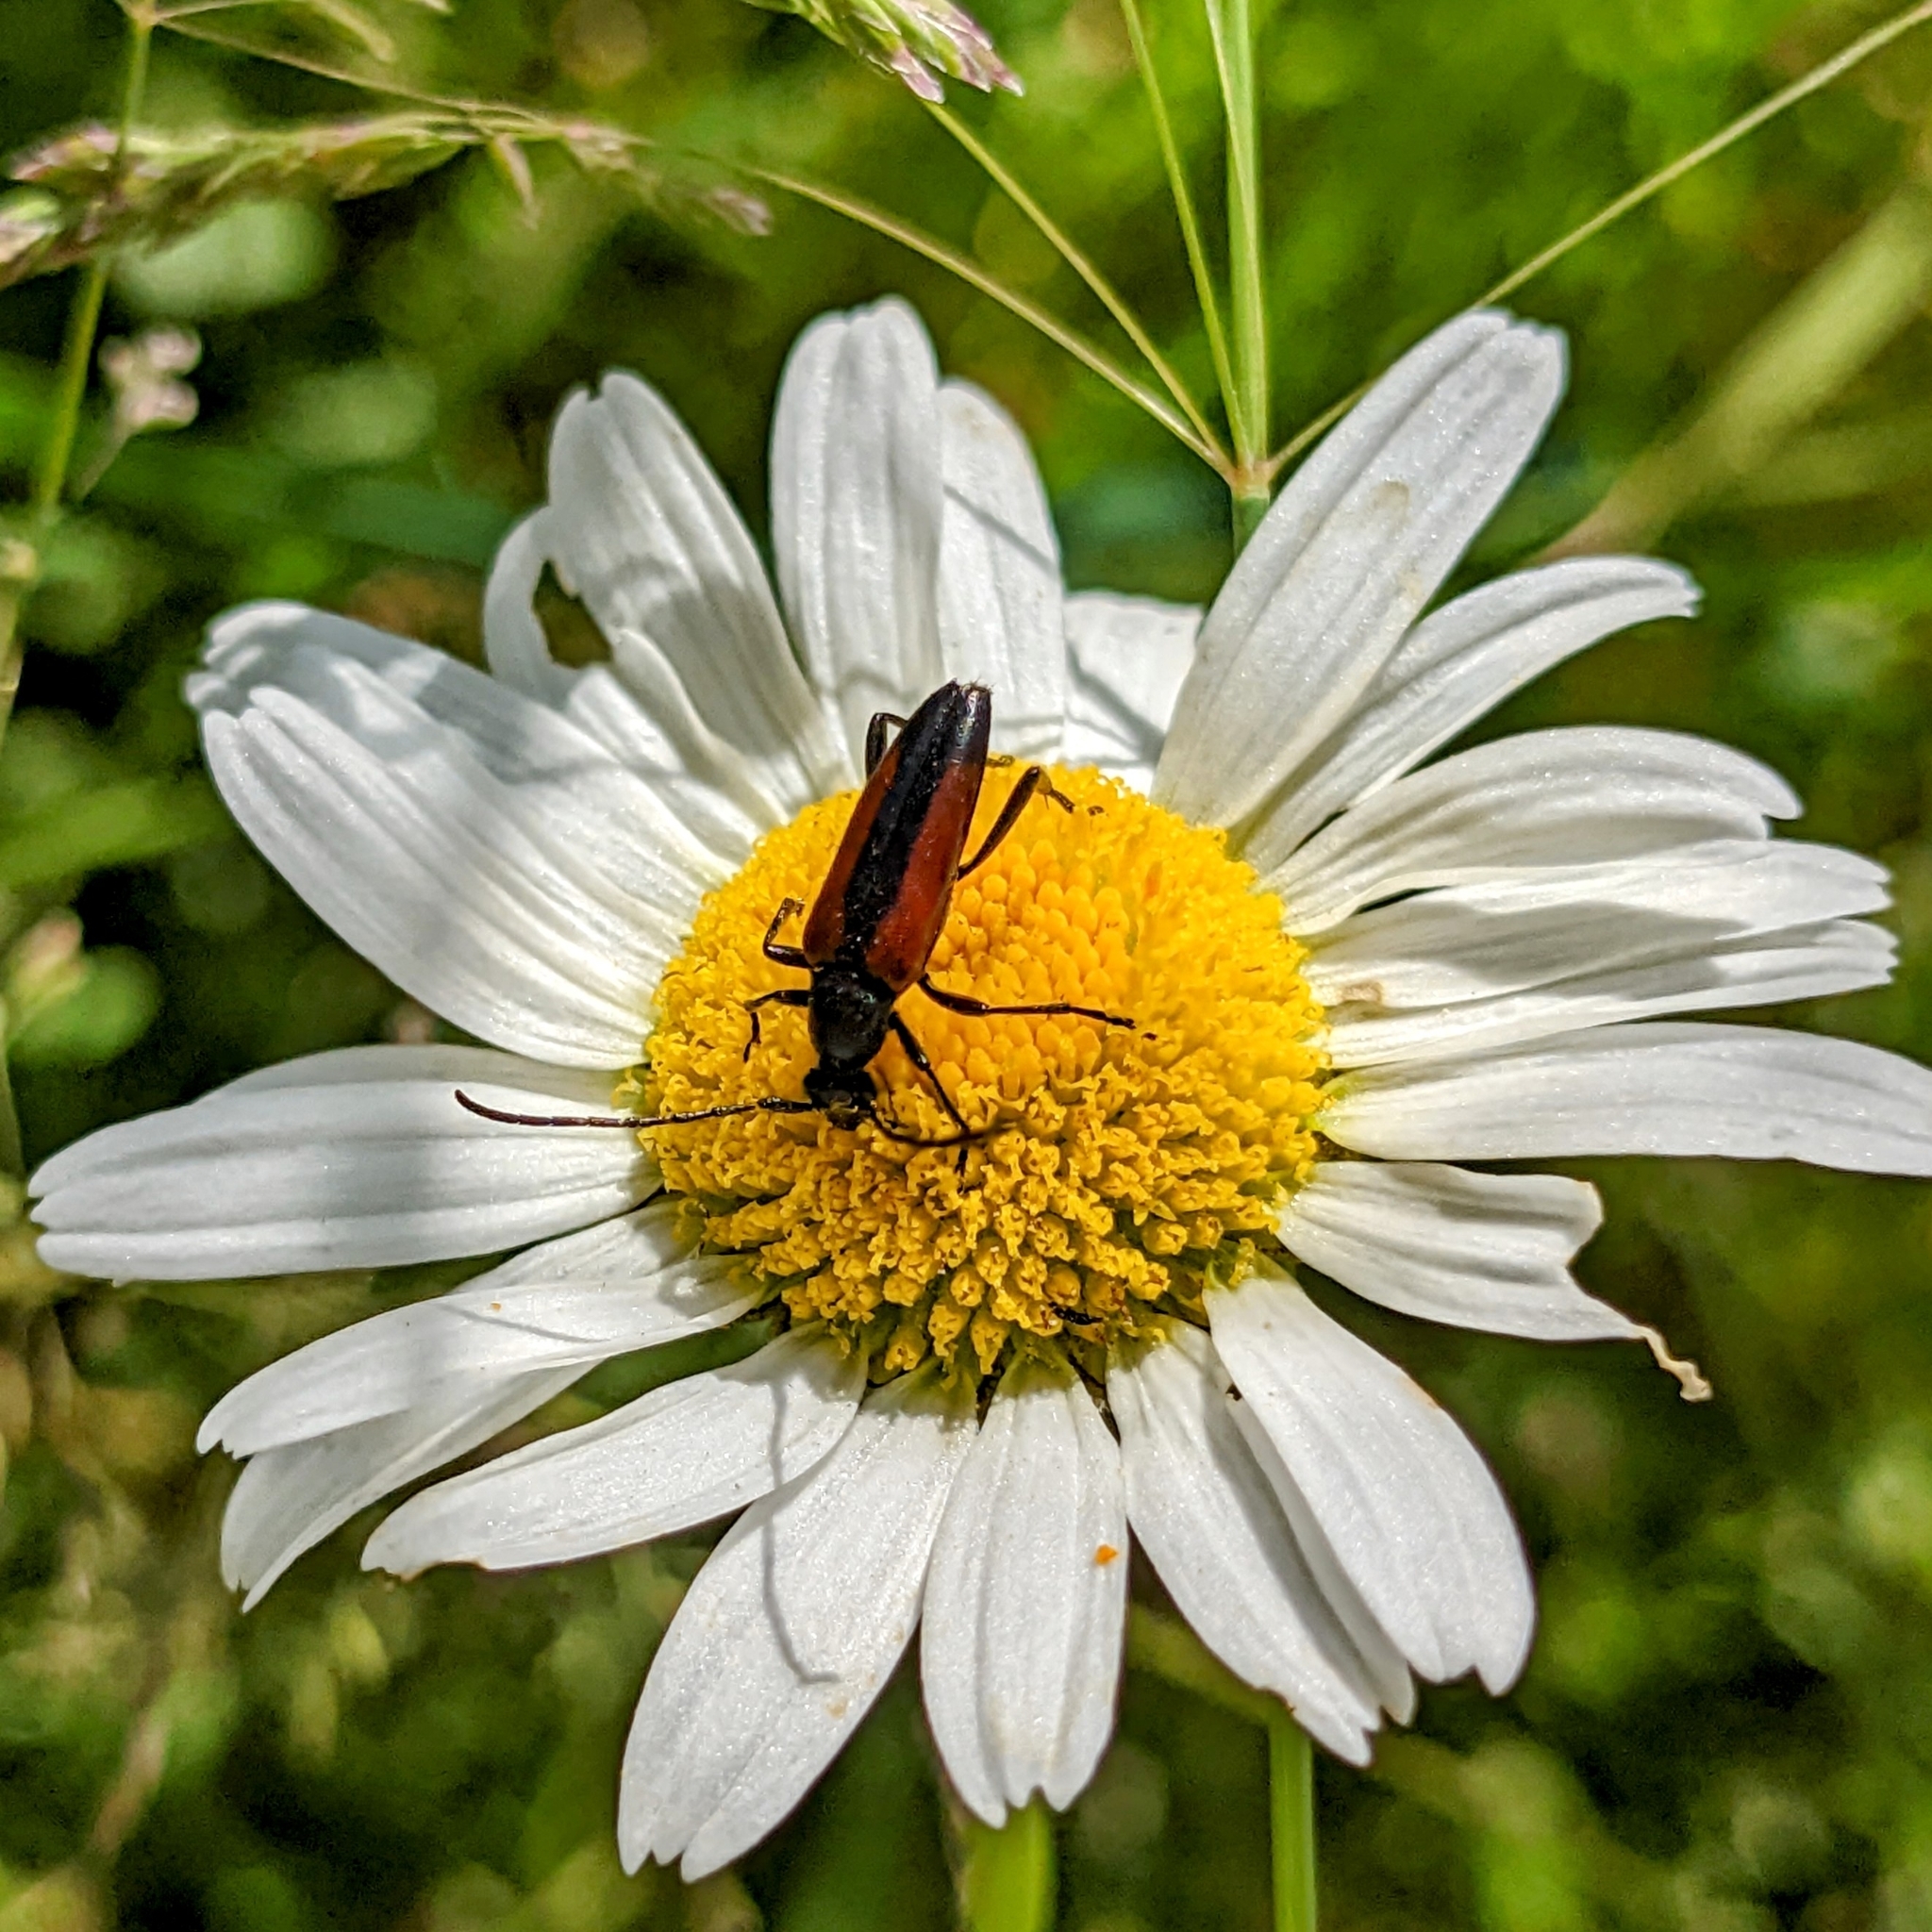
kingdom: Animalia
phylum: Arthropoda
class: Insecta
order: Coleoptera
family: Cerambycidae
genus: Stenurella
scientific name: Stenurella melanura
